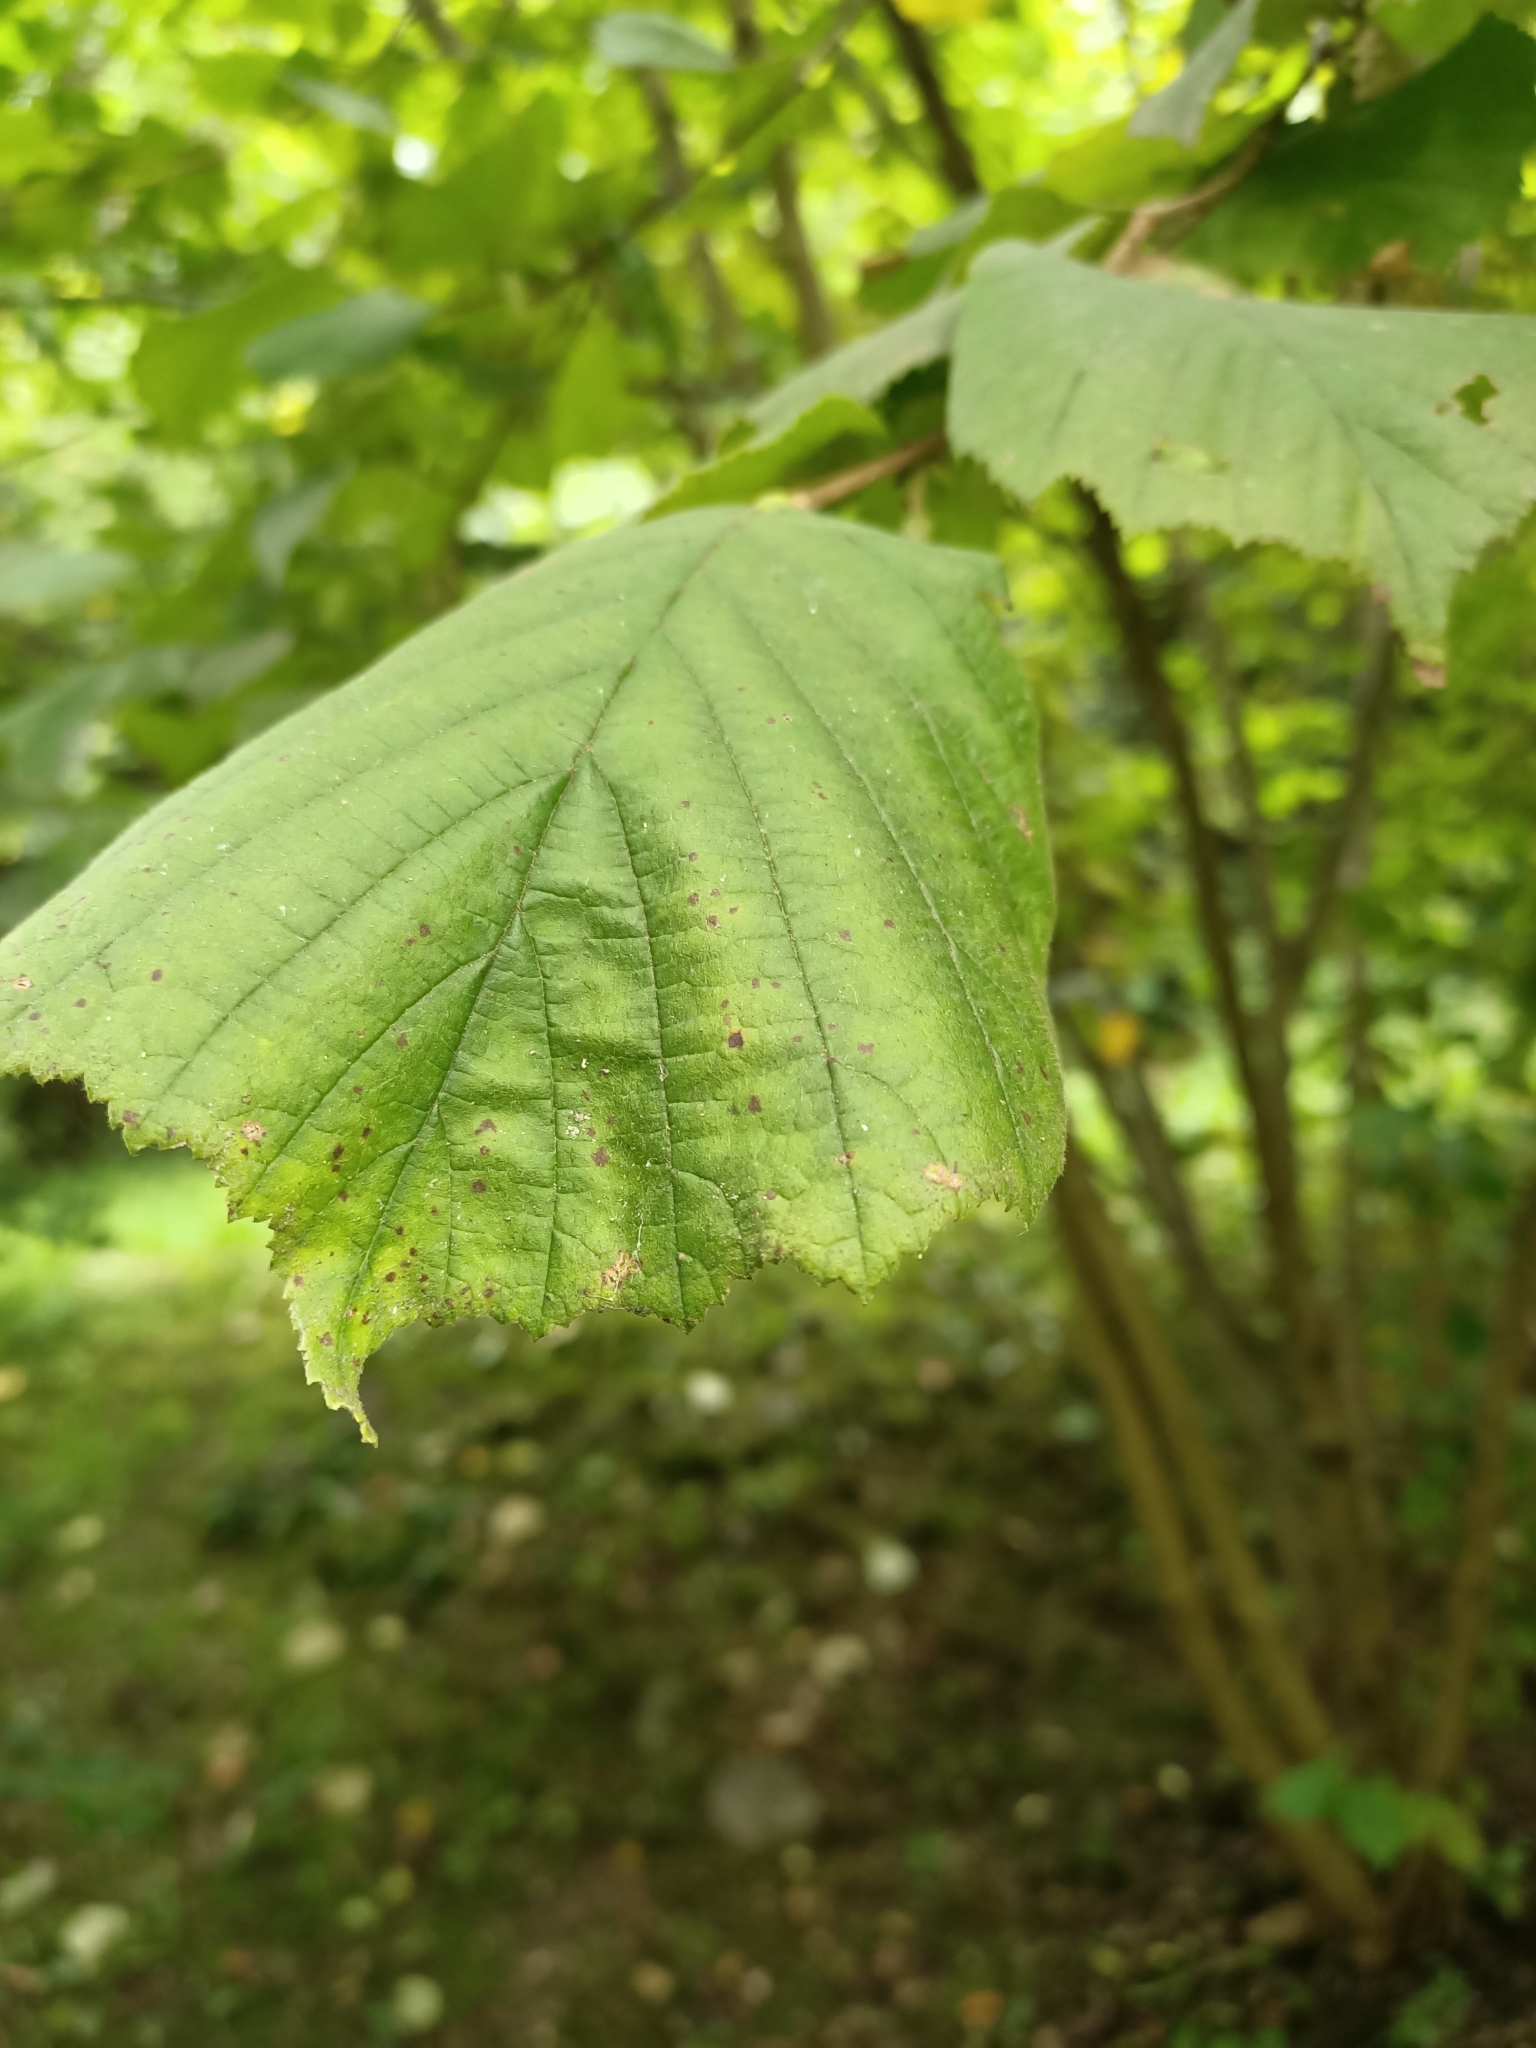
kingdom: Plantae
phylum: Tracheophyta
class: Magnoliopsida
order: Fagales
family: Betulaceae
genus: Corylus
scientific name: Corylus avellana
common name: European hazel
